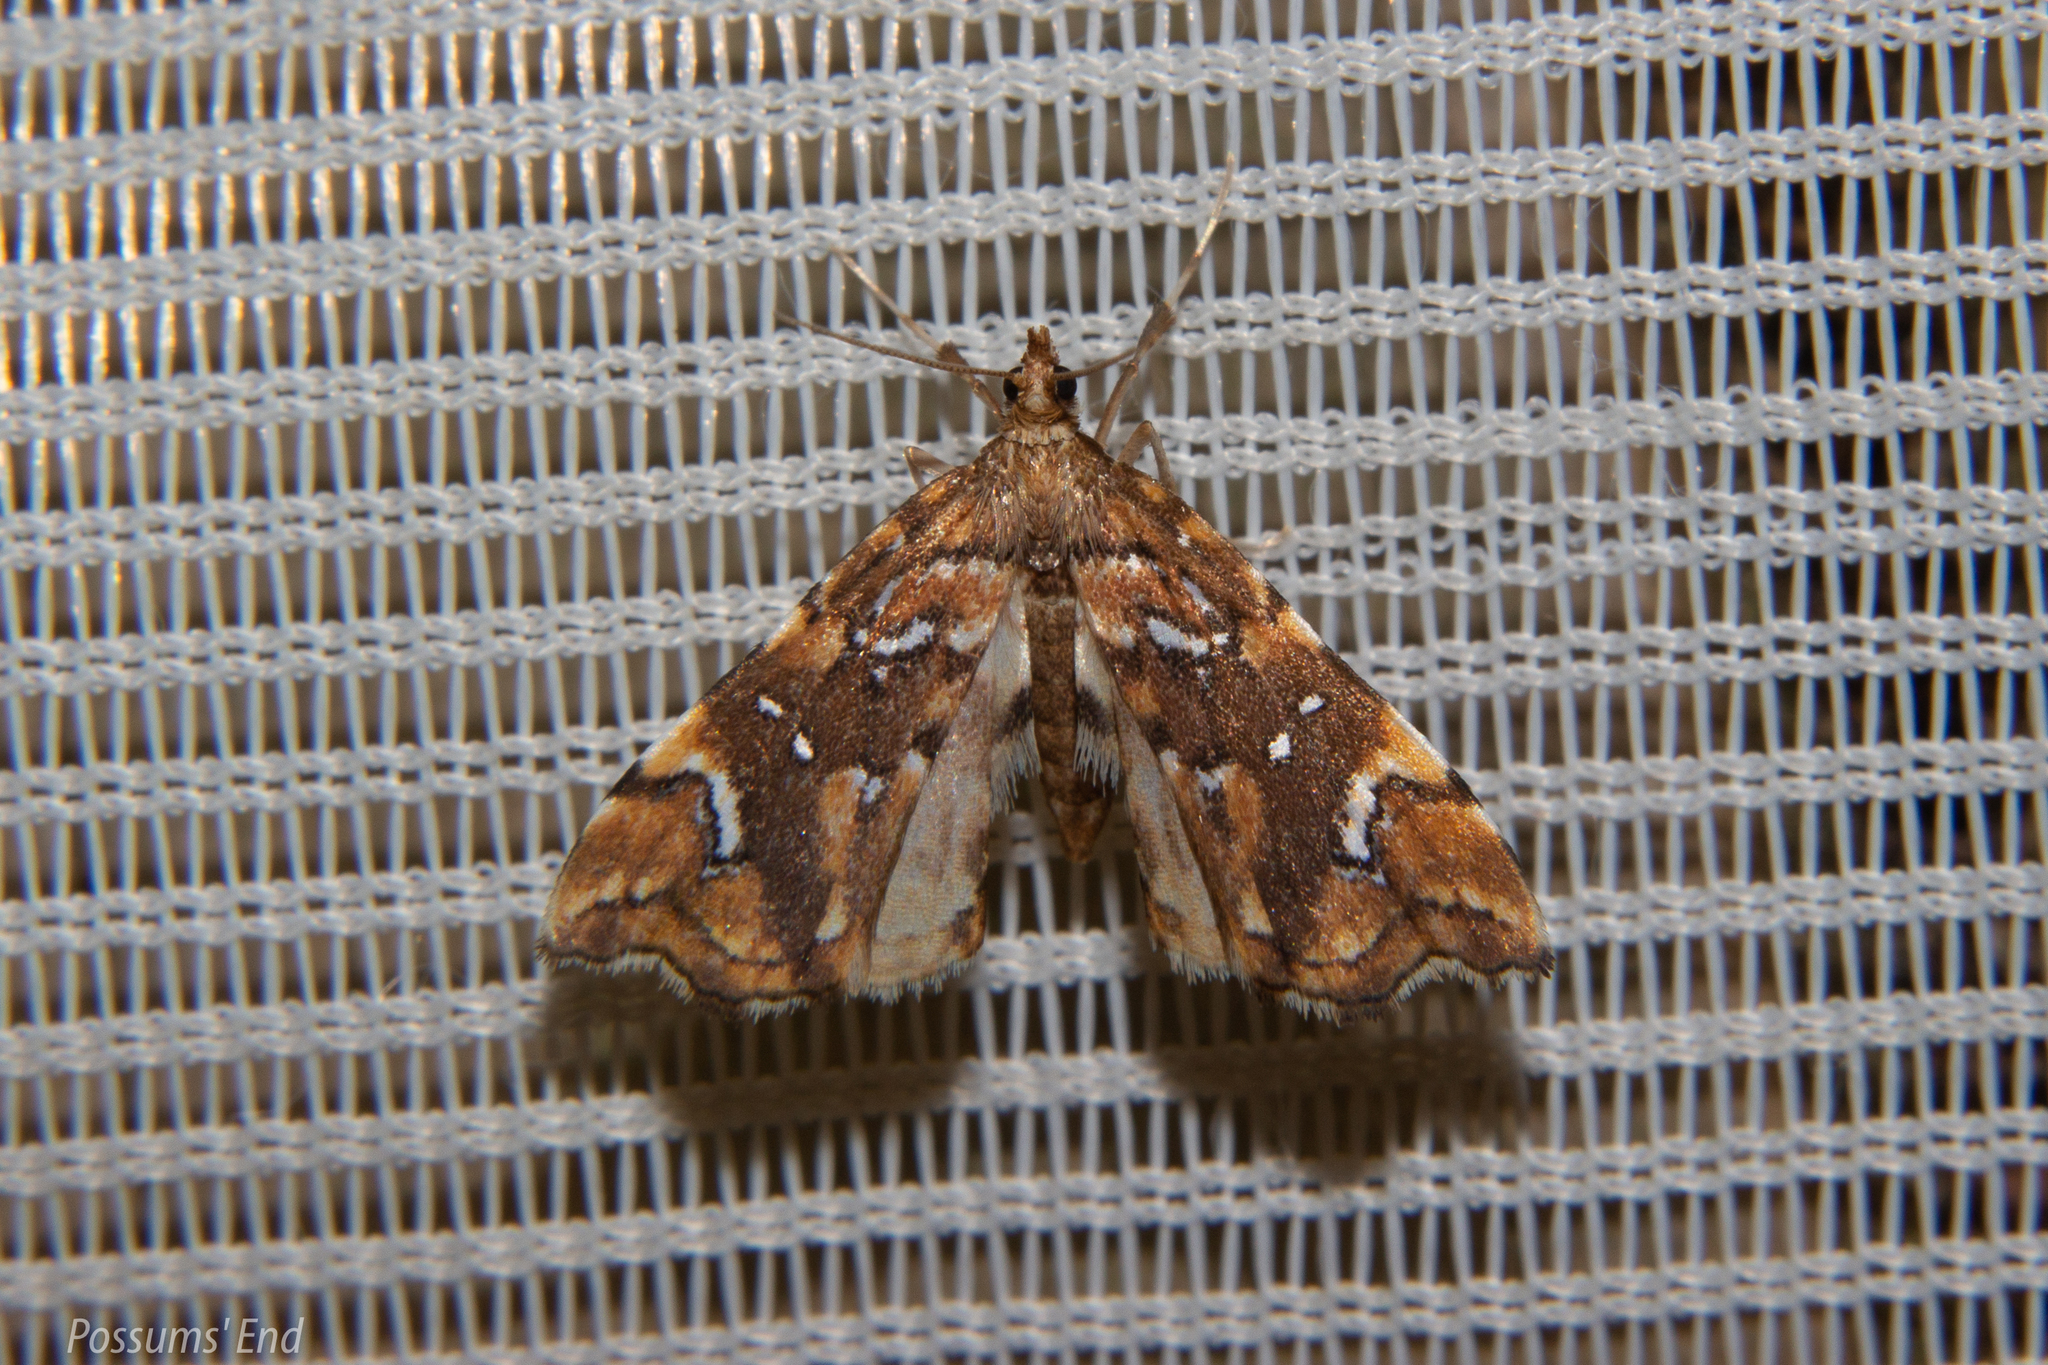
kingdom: Animalia
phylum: Arthropoda
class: Insecta
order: Lepidoptera
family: Pyralidae
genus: Musotima
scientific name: Musotima nitidalis
